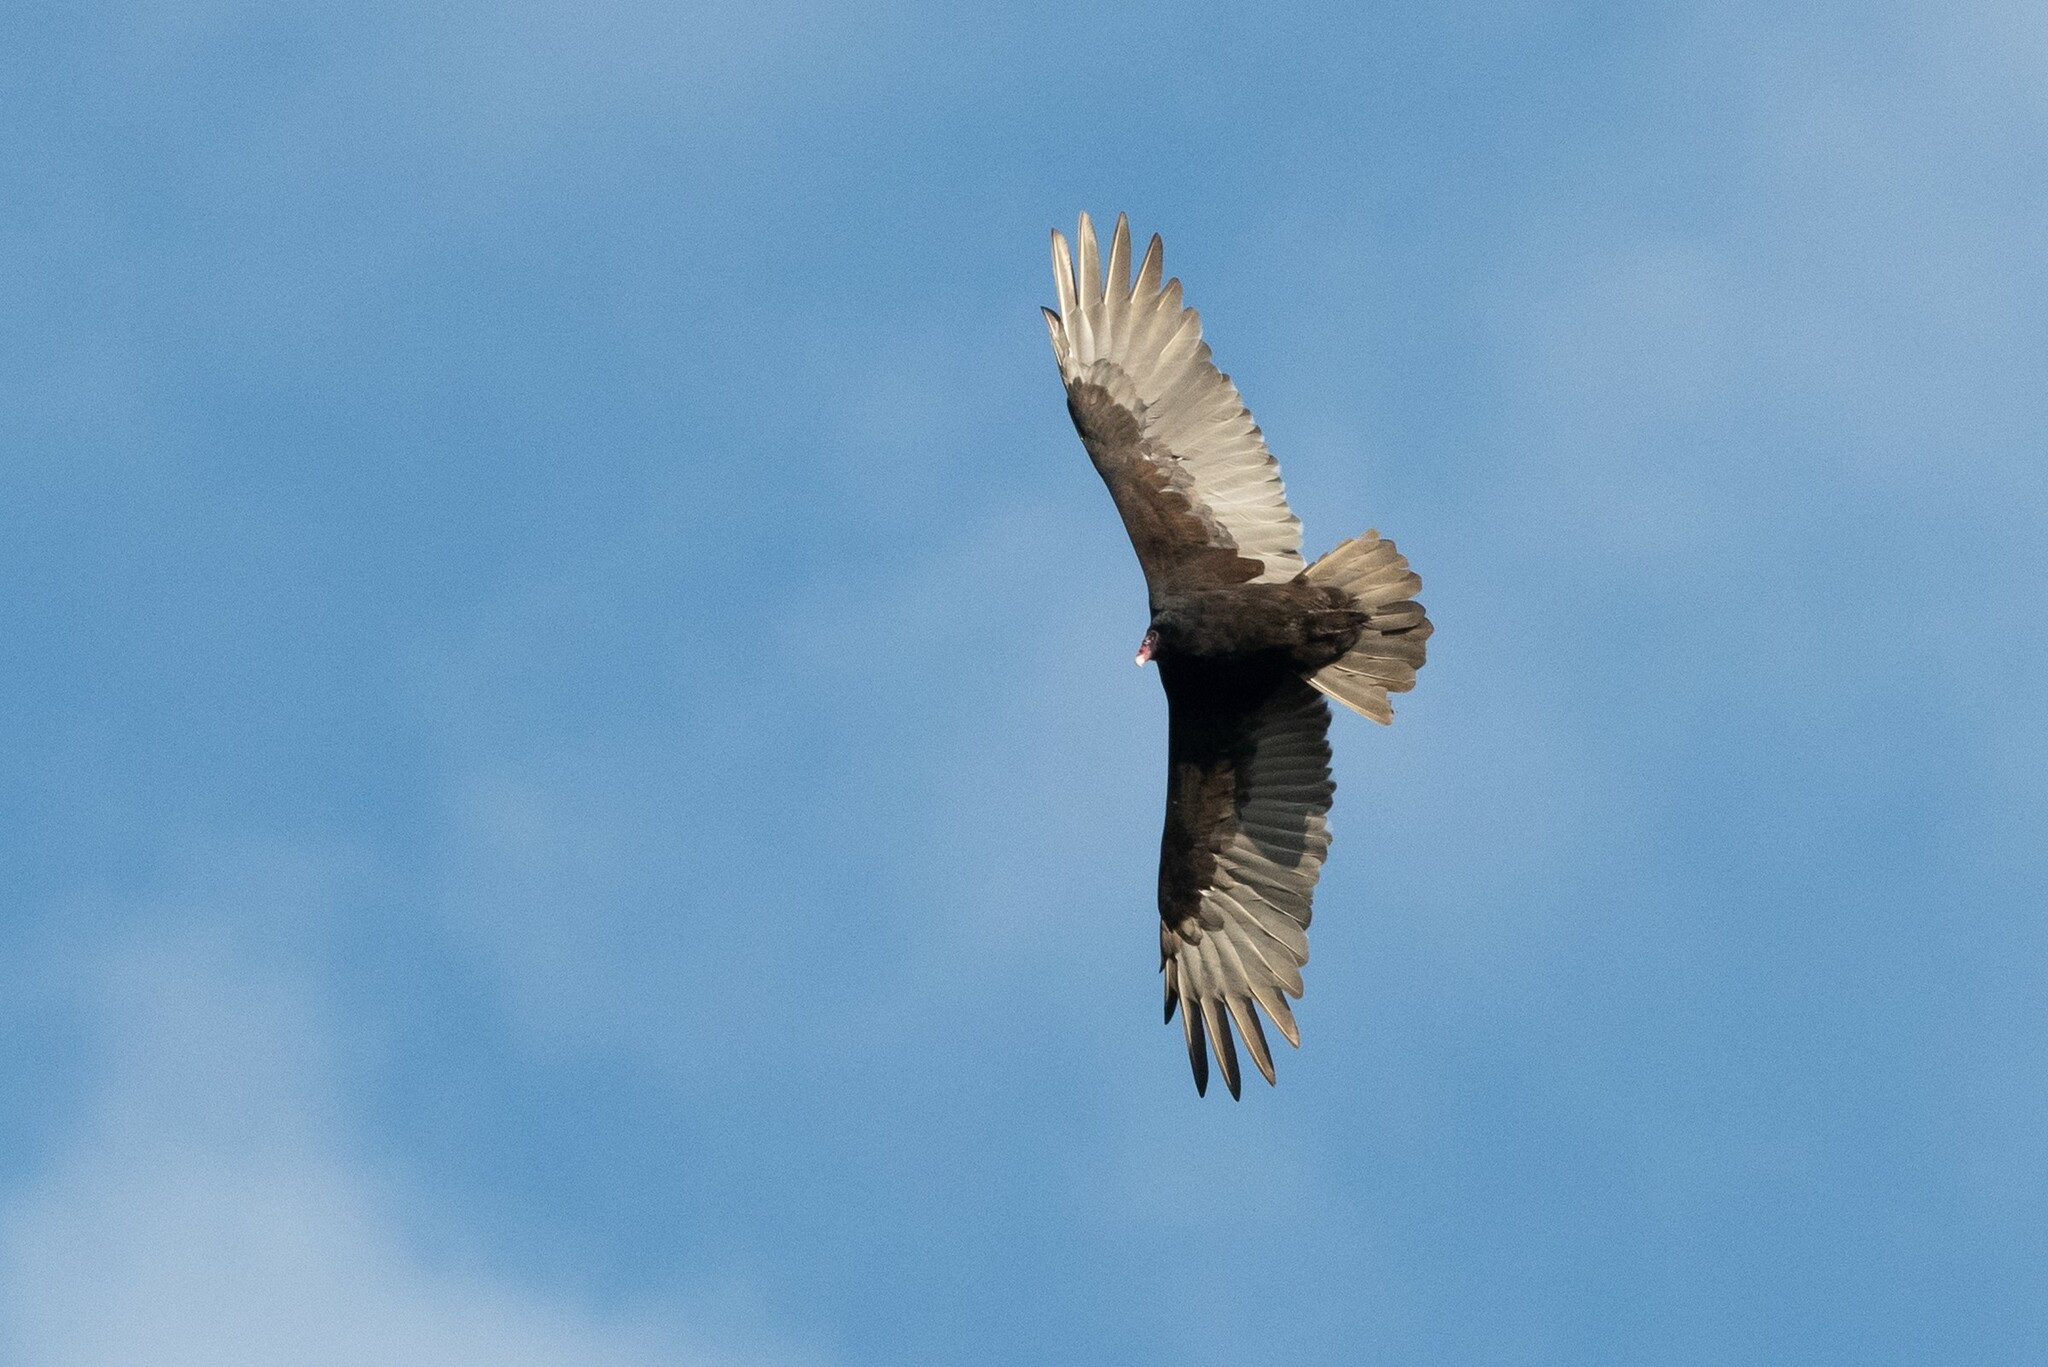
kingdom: Animalia
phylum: Chordata
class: Aves
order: Accipitriformes
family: Cathartidae
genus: Cathartes
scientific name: Cathartes aura
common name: Turkey vulture
